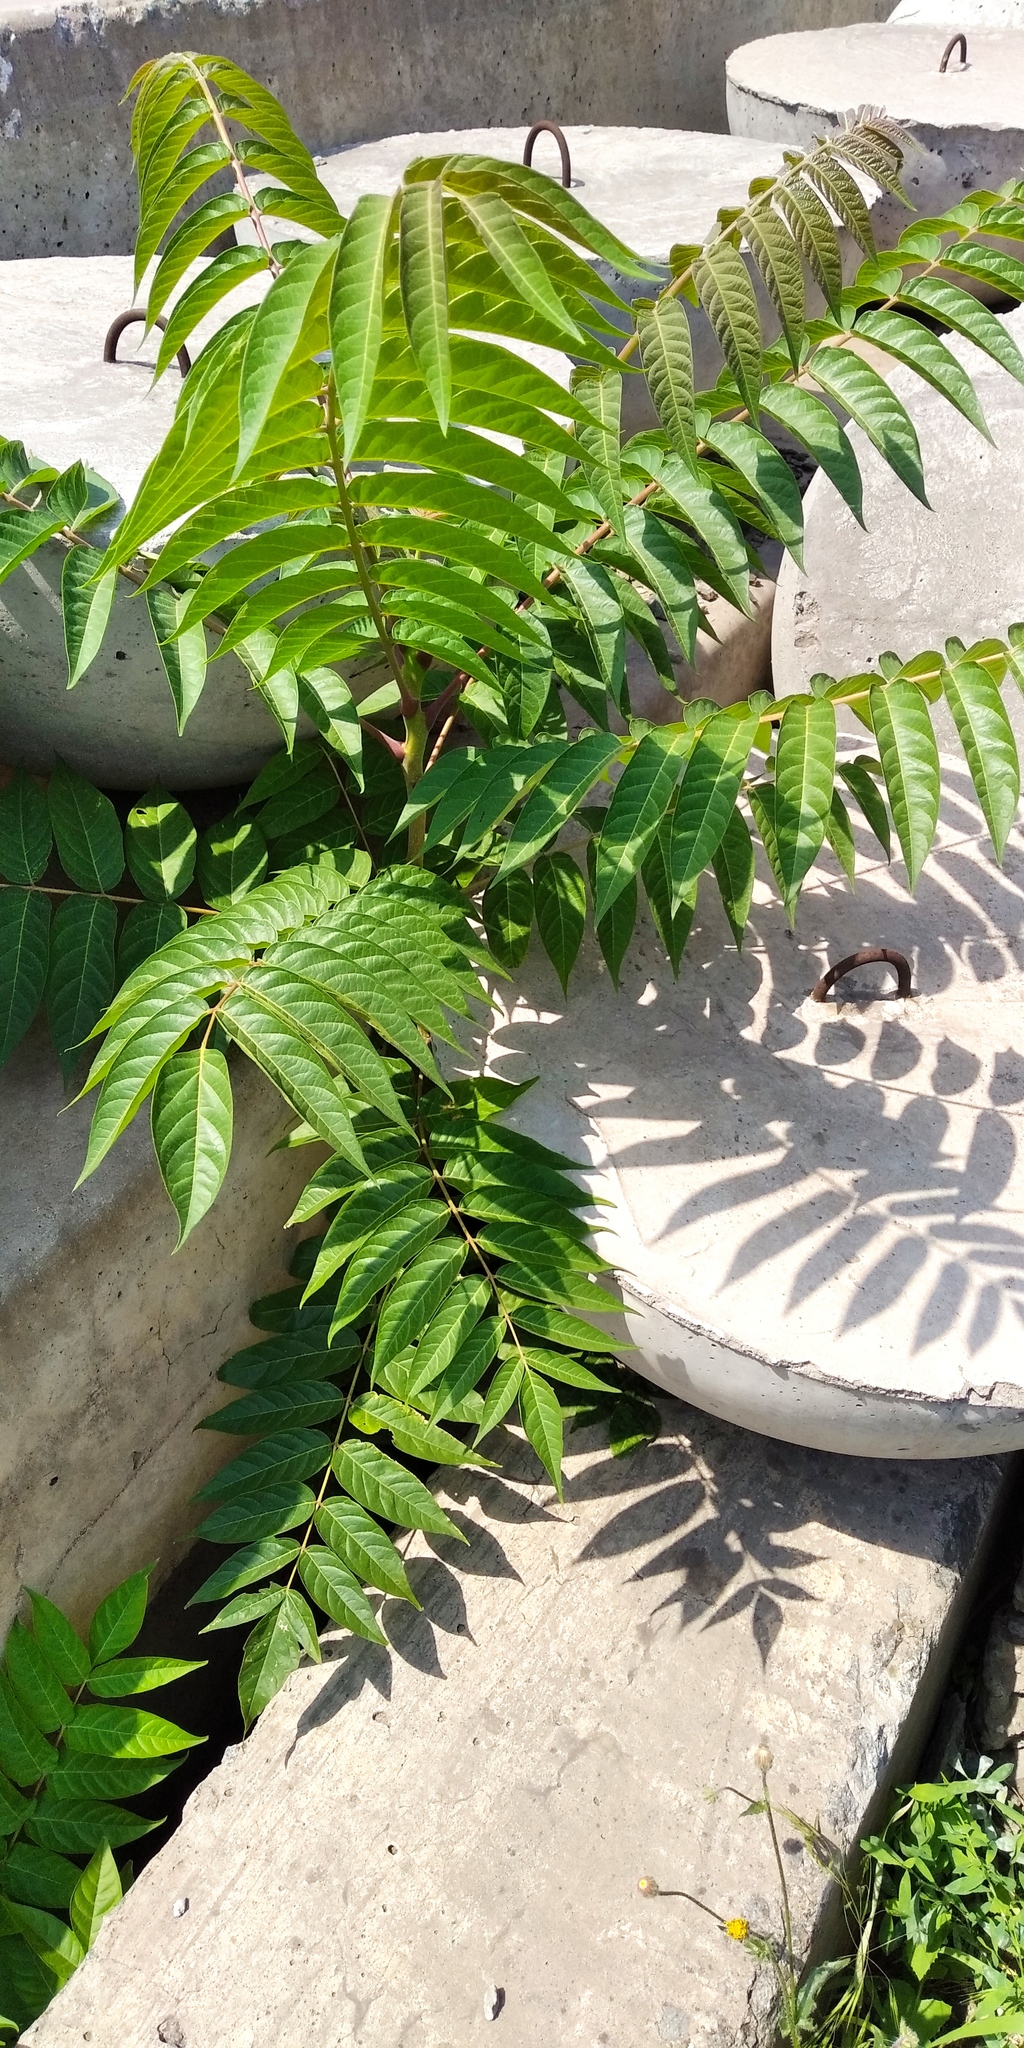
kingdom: Plantae
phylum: Tracheophyta
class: Magnoliopsida
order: Sapindales
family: Simaroubaceae
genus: Ailanthus
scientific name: Ailanthus altissima
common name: Tree-of-heaven
